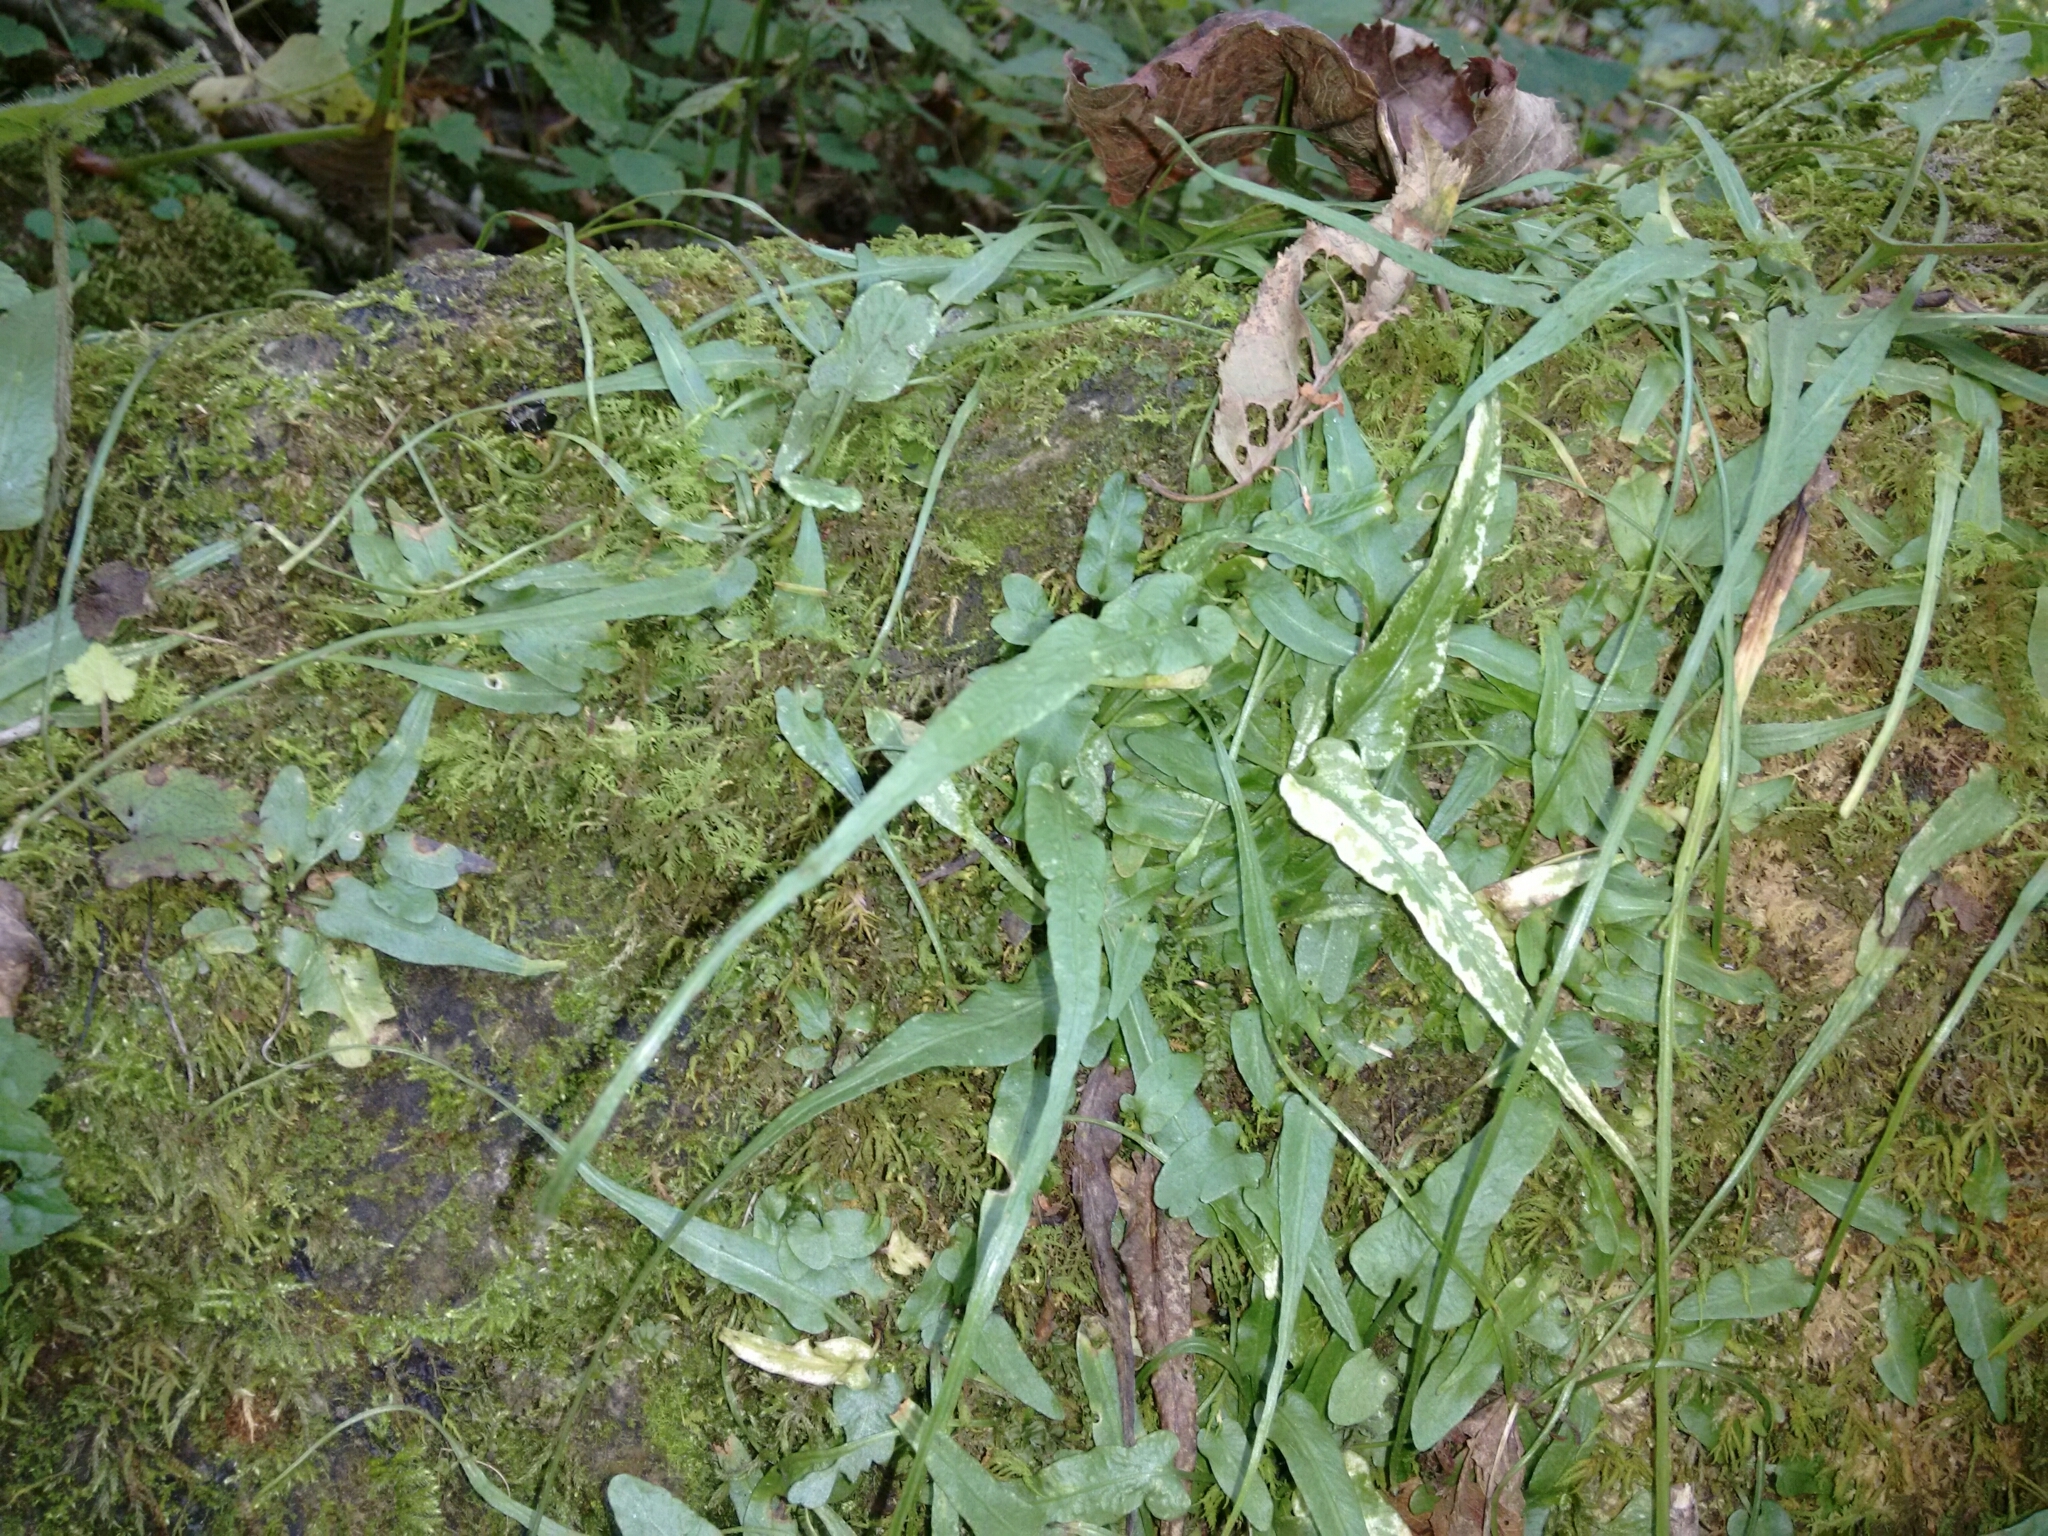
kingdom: Plantae
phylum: Tracheophyta
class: Polypodiopsida
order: Polypodiales
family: Aspleniaceae
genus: Asplenium
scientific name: Asplenium rhizophyllum
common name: Walking fern
